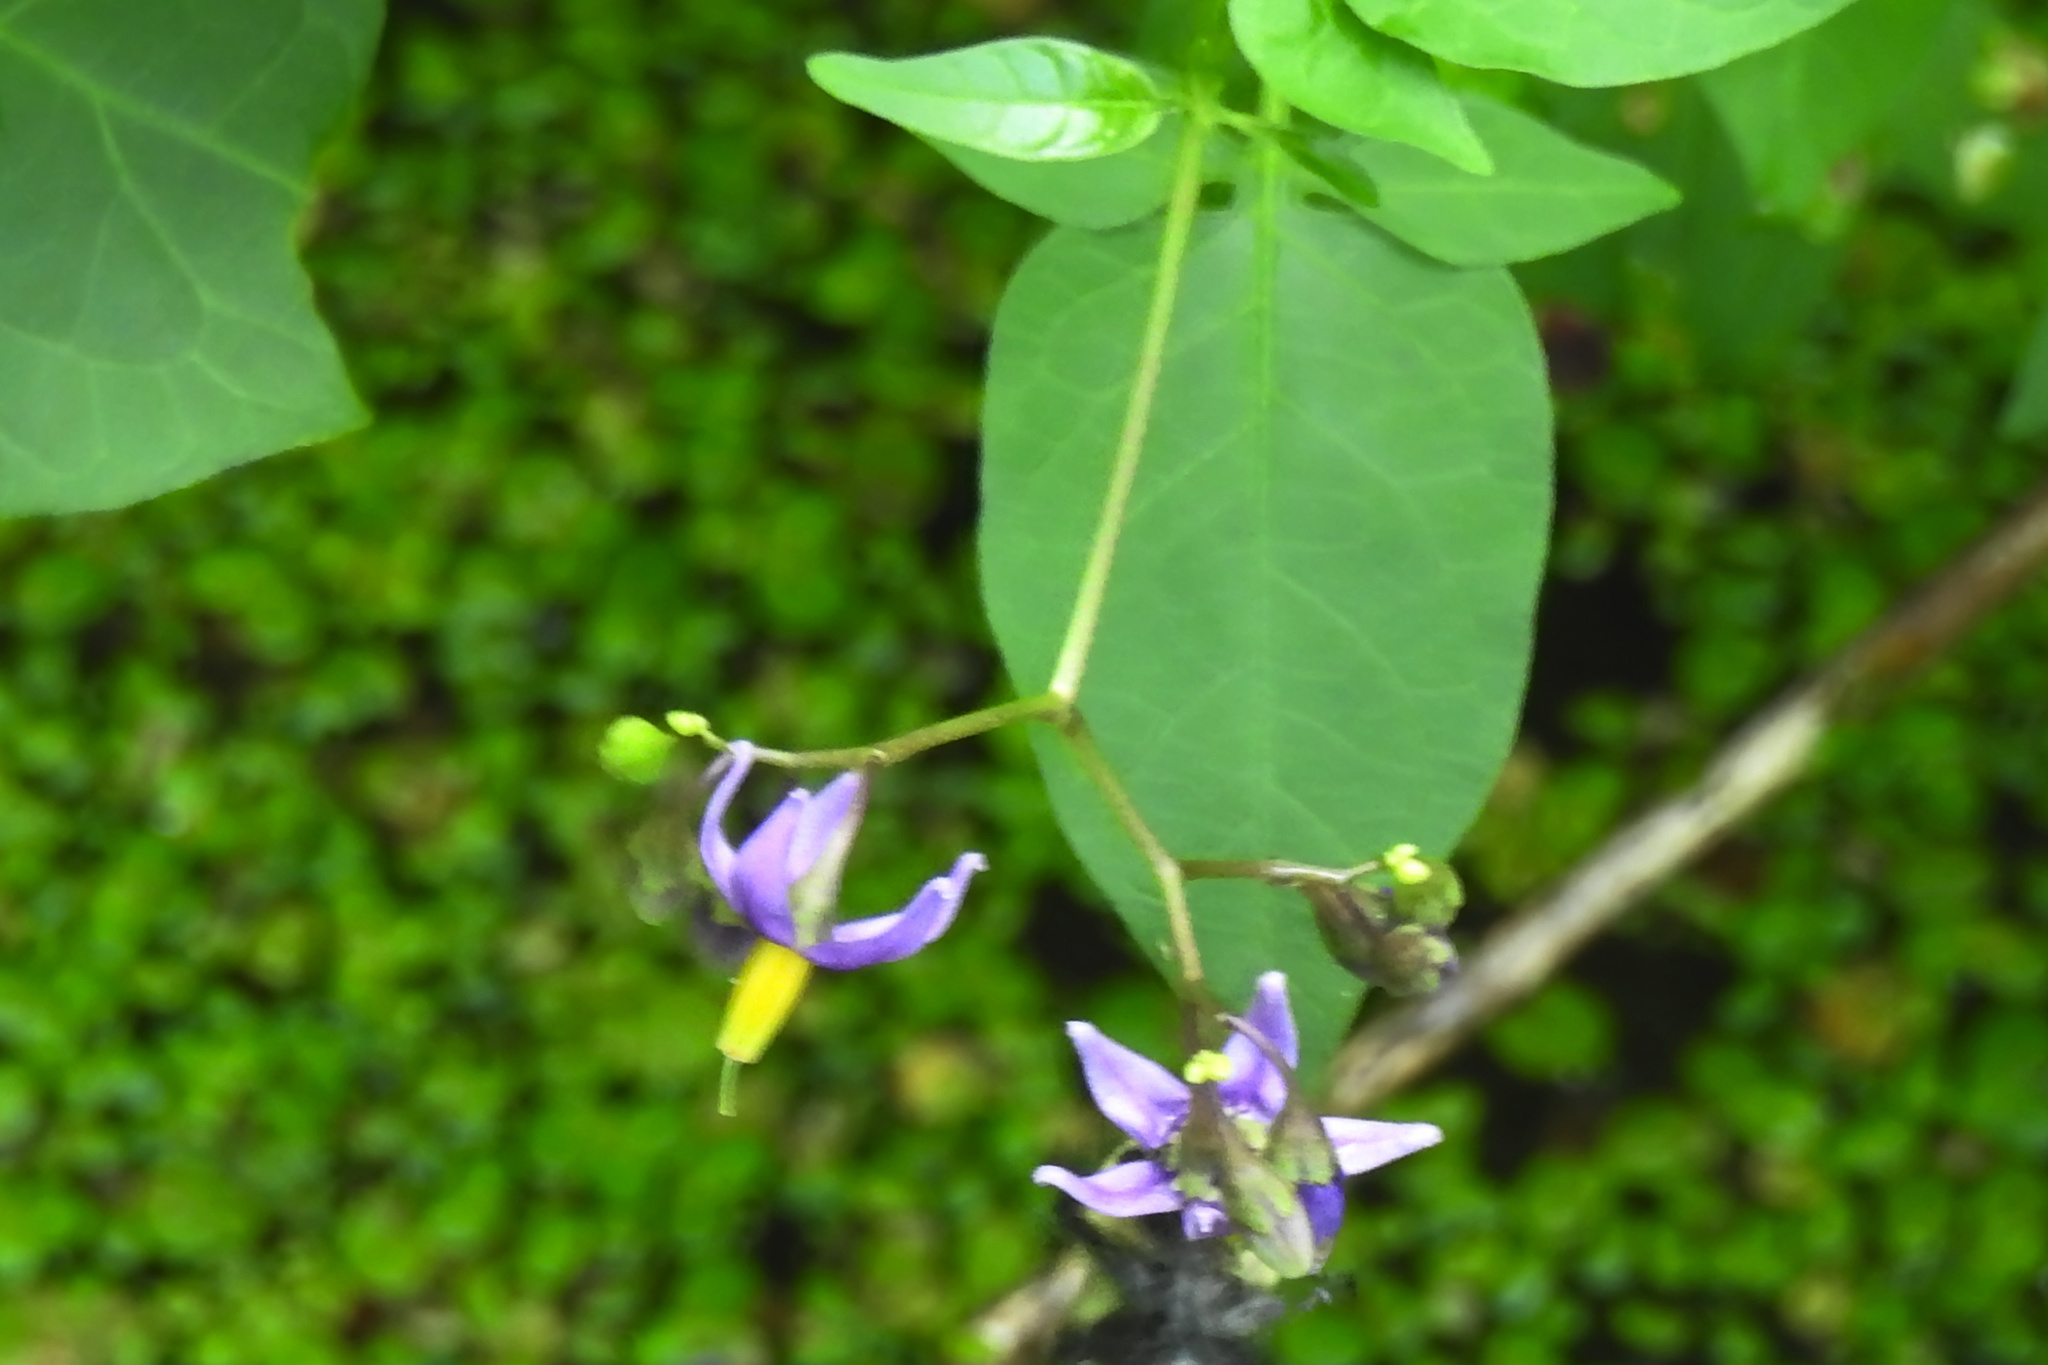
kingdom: Plantae
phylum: Tracheophyta
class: Magnoliopsida
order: Solanales
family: Solanaceae
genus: Solanum
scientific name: Solanum dulcamara
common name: Climbing nightshade
